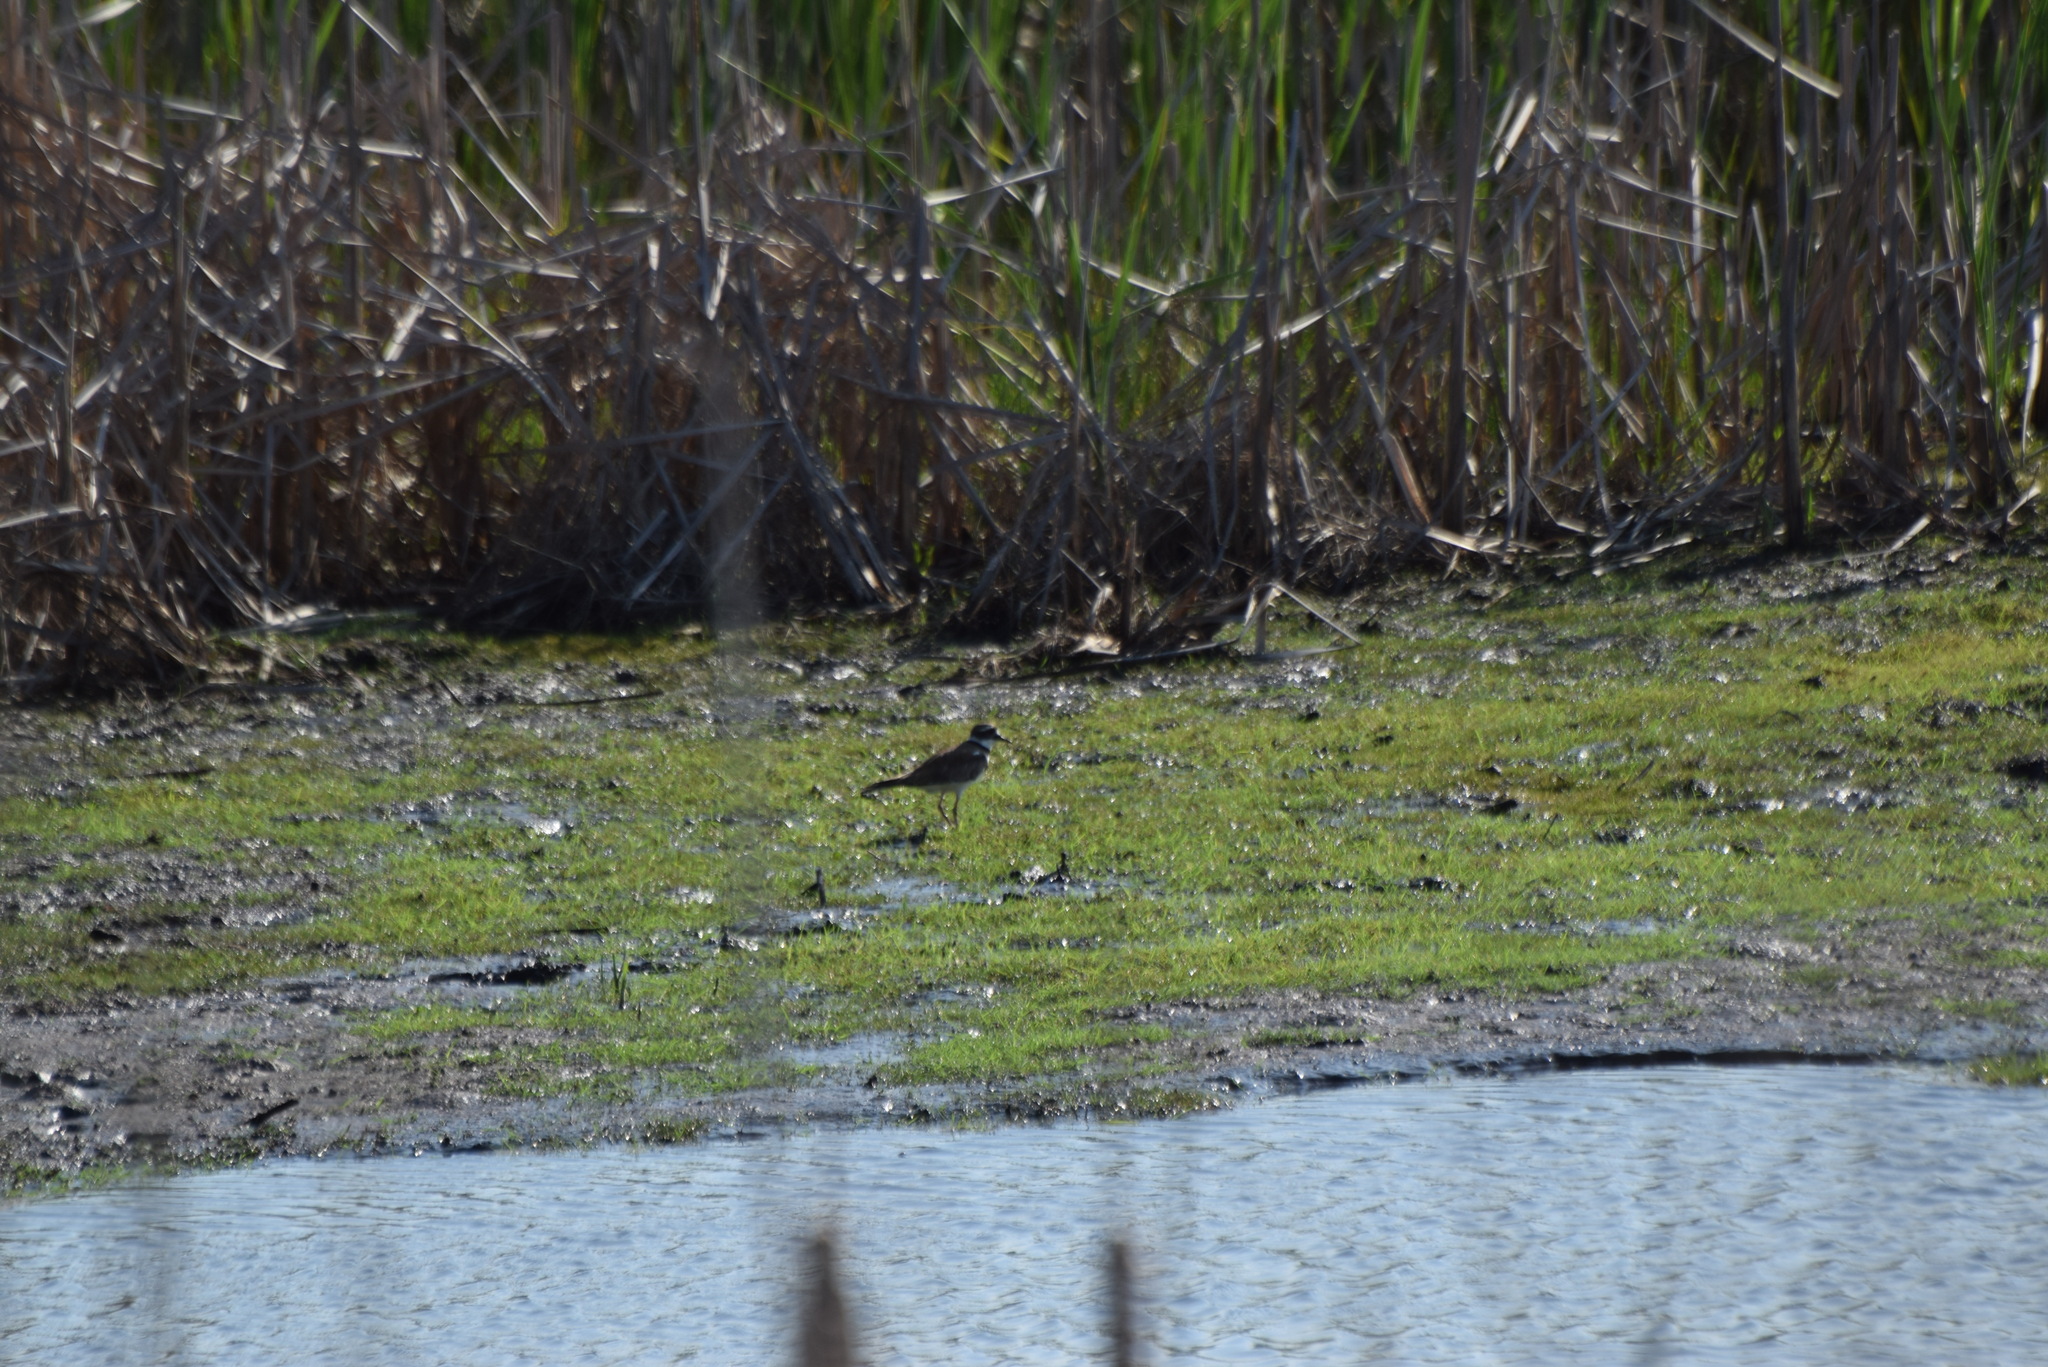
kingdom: Animalia
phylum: Chordata
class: Aves
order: Charadriiformes
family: Charadriidae
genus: Charadrius
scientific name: Charadrius vociferus
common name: Killdeer
